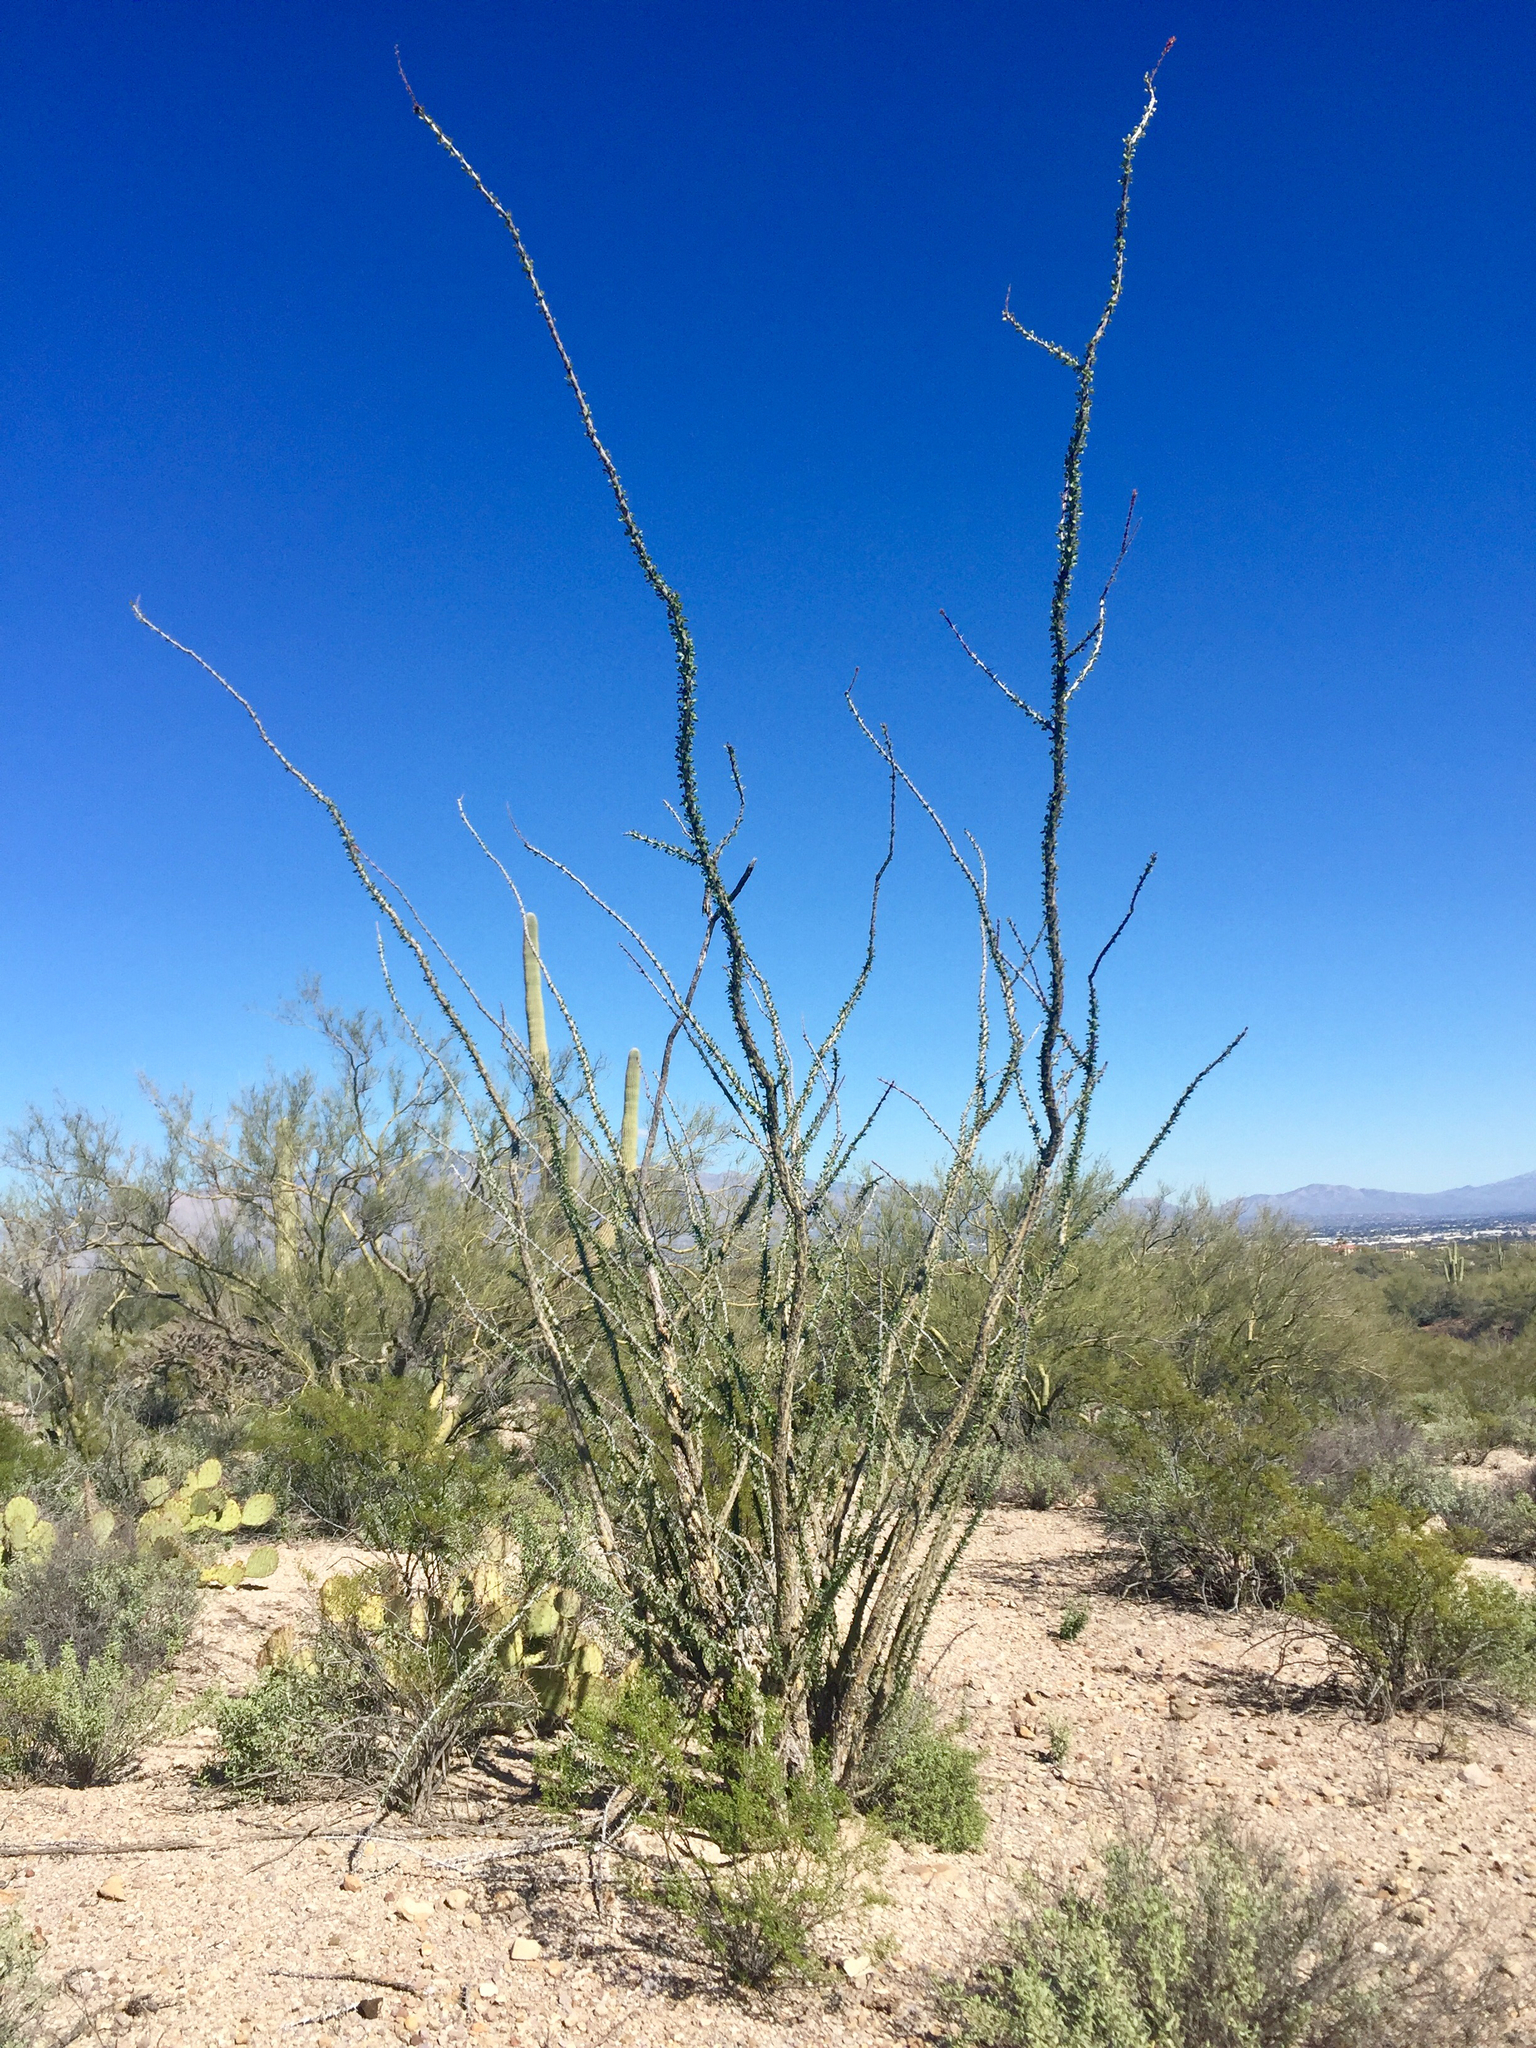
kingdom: Plantae
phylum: Tracheophyta
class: Magnoliopsida
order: Ericales
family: Fouquieriaceae
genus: Fouquieria
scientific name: Fouquieria splendens
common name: Vine-cactus
